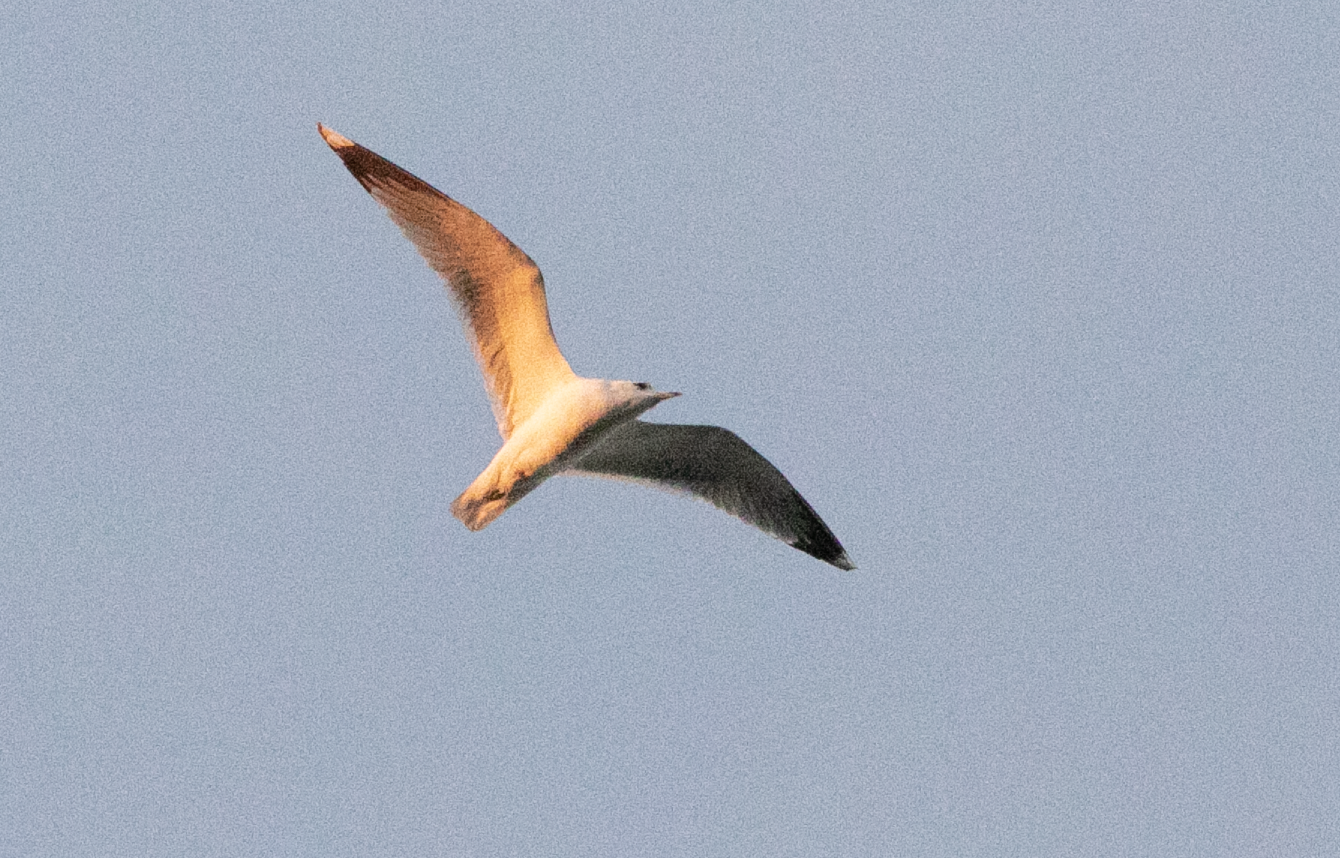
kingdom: Animalia
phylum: Chordata
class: Aves
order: Charadriiformes
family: Laridae
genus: Larus
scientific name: Larus canus
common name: Mew gull
